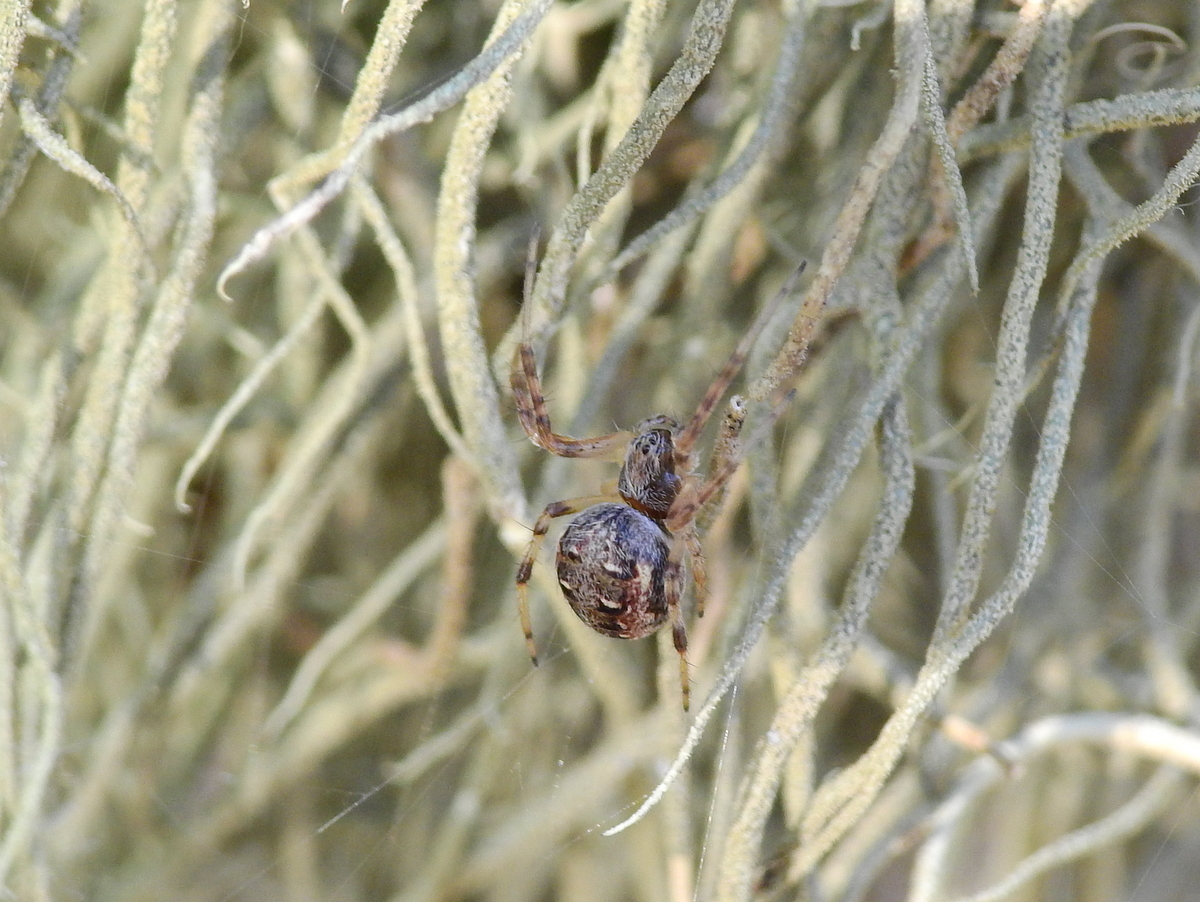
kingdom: Animalia
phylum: Arthropoda
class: Arachnida
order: Araneae
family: Araneidae
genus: Metepeira
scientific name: Metepeira
